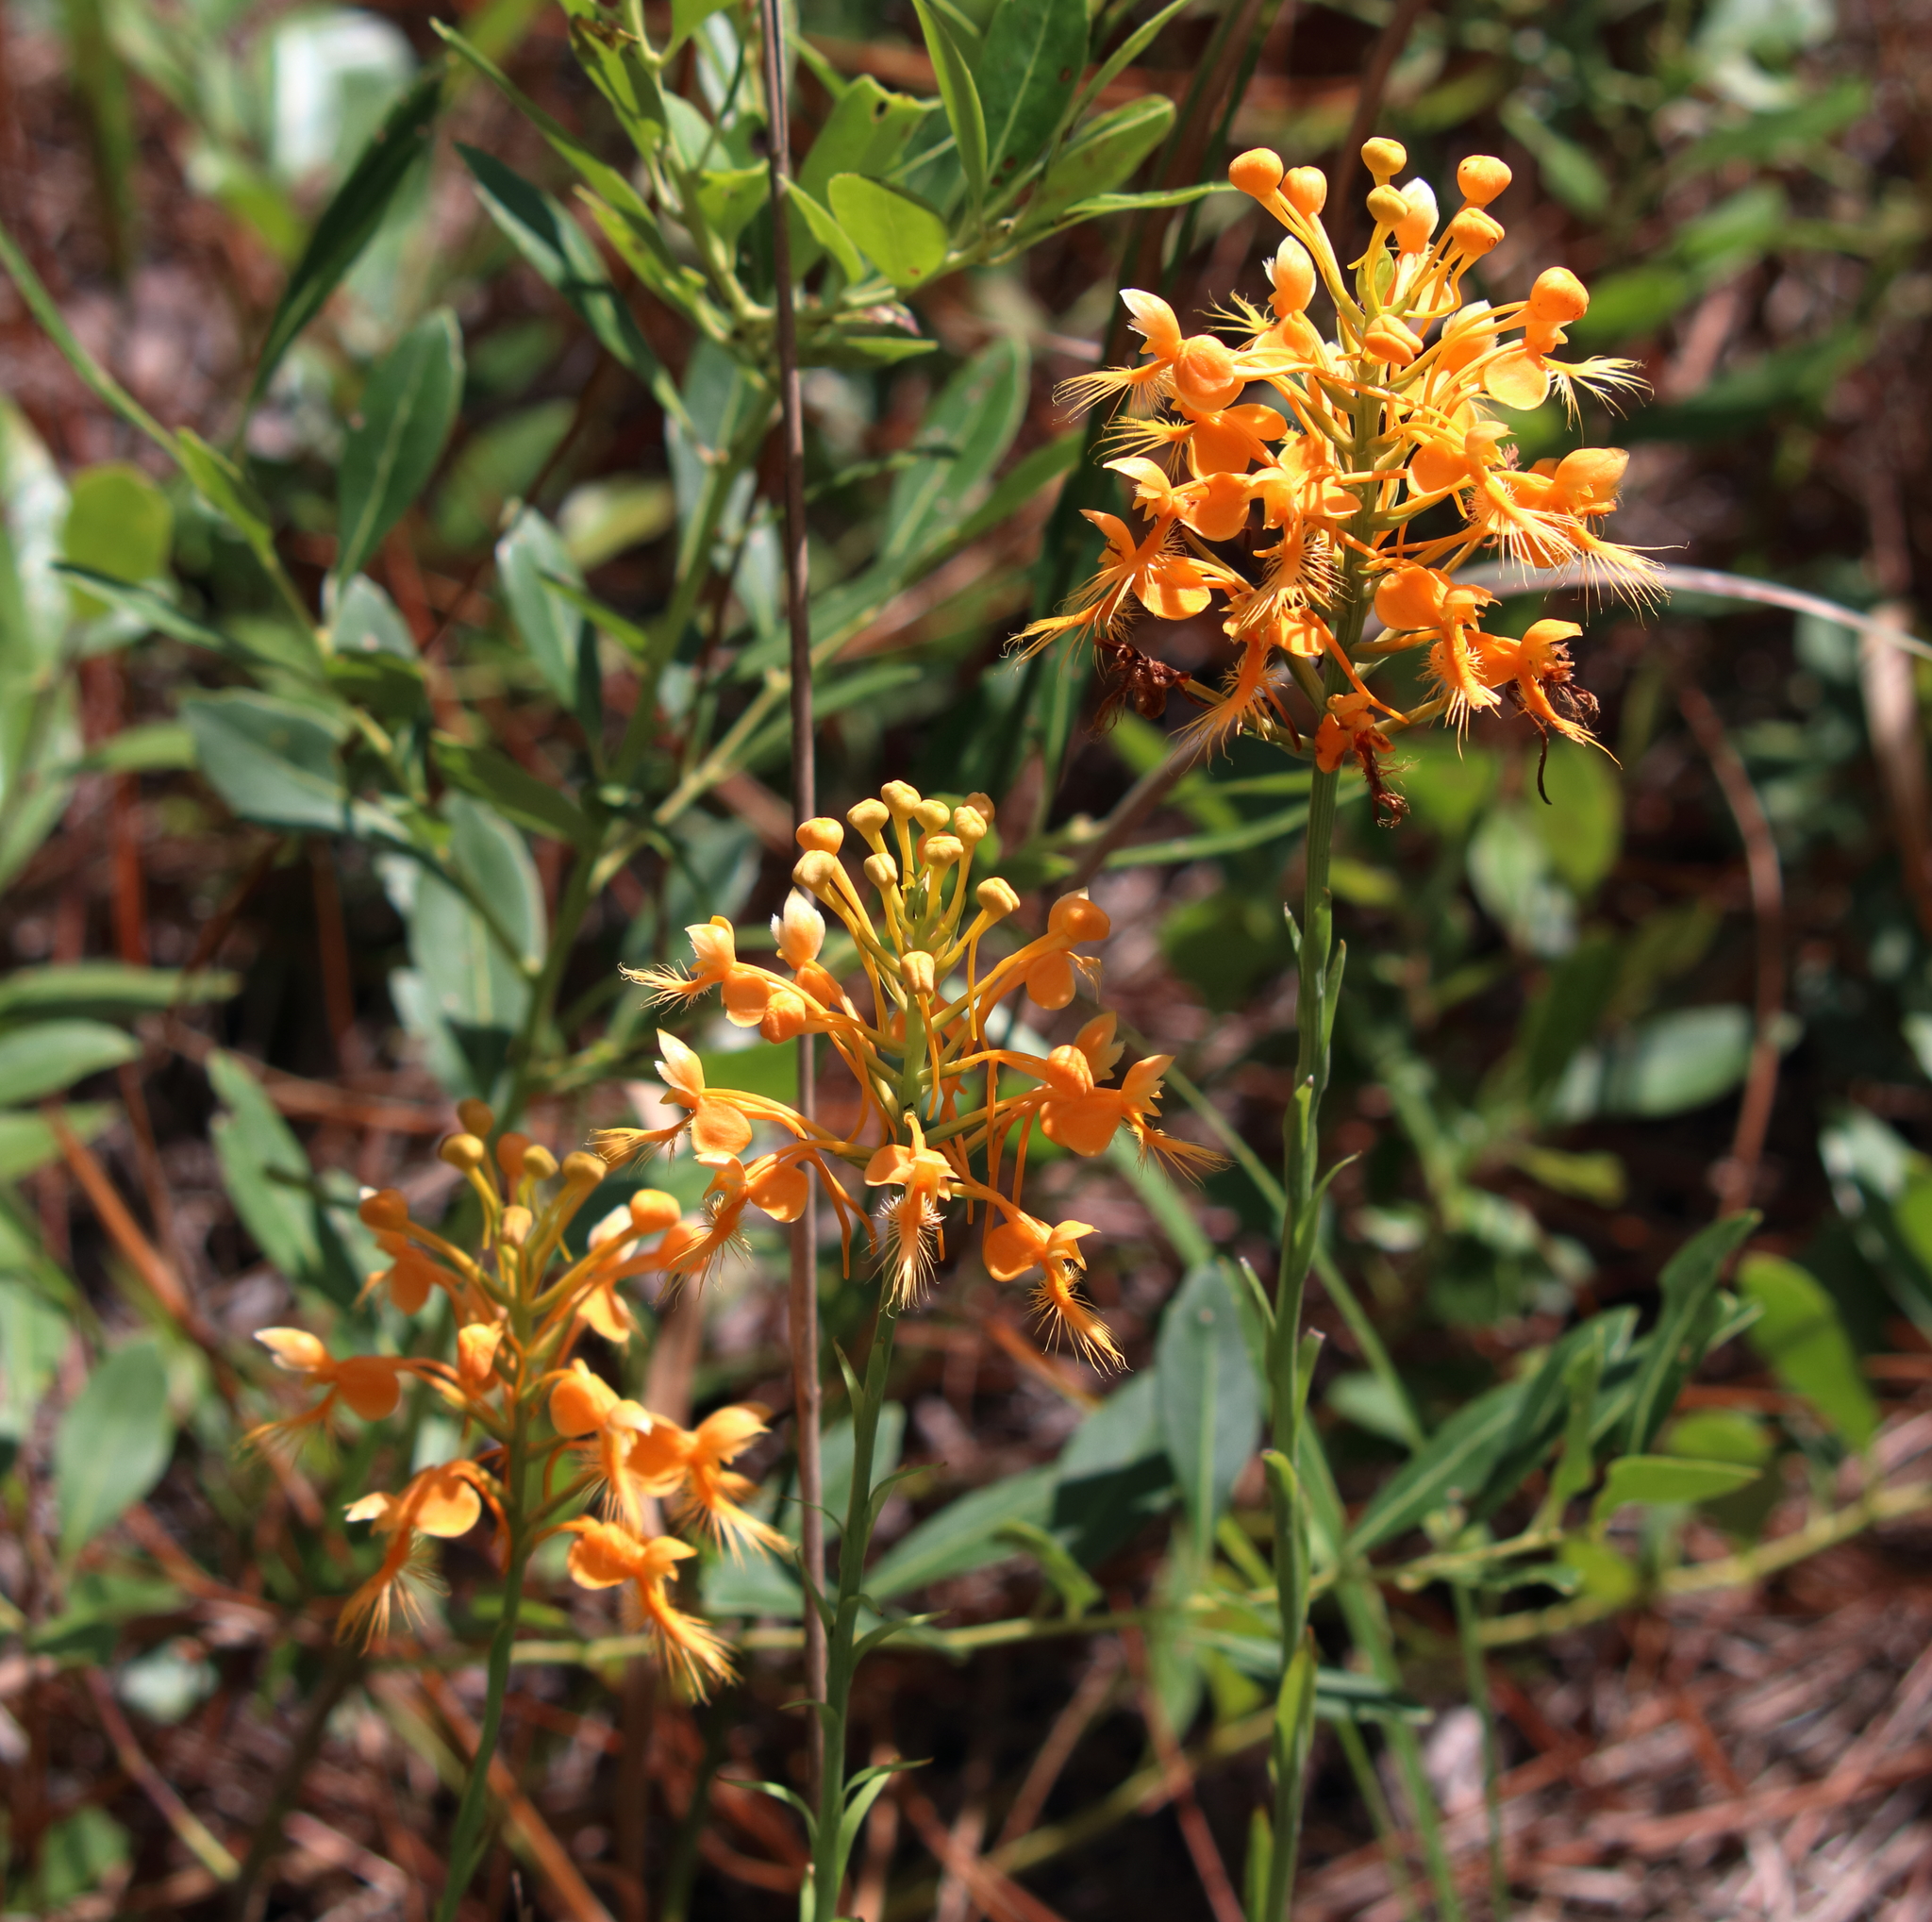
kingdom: Plantae
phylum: Tracheophyta
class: Liliopsida
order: Asparagales
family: Orchidaceae
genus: Platanthera
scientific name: Platanthera ciliaris
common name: Yellow fringed orchid
